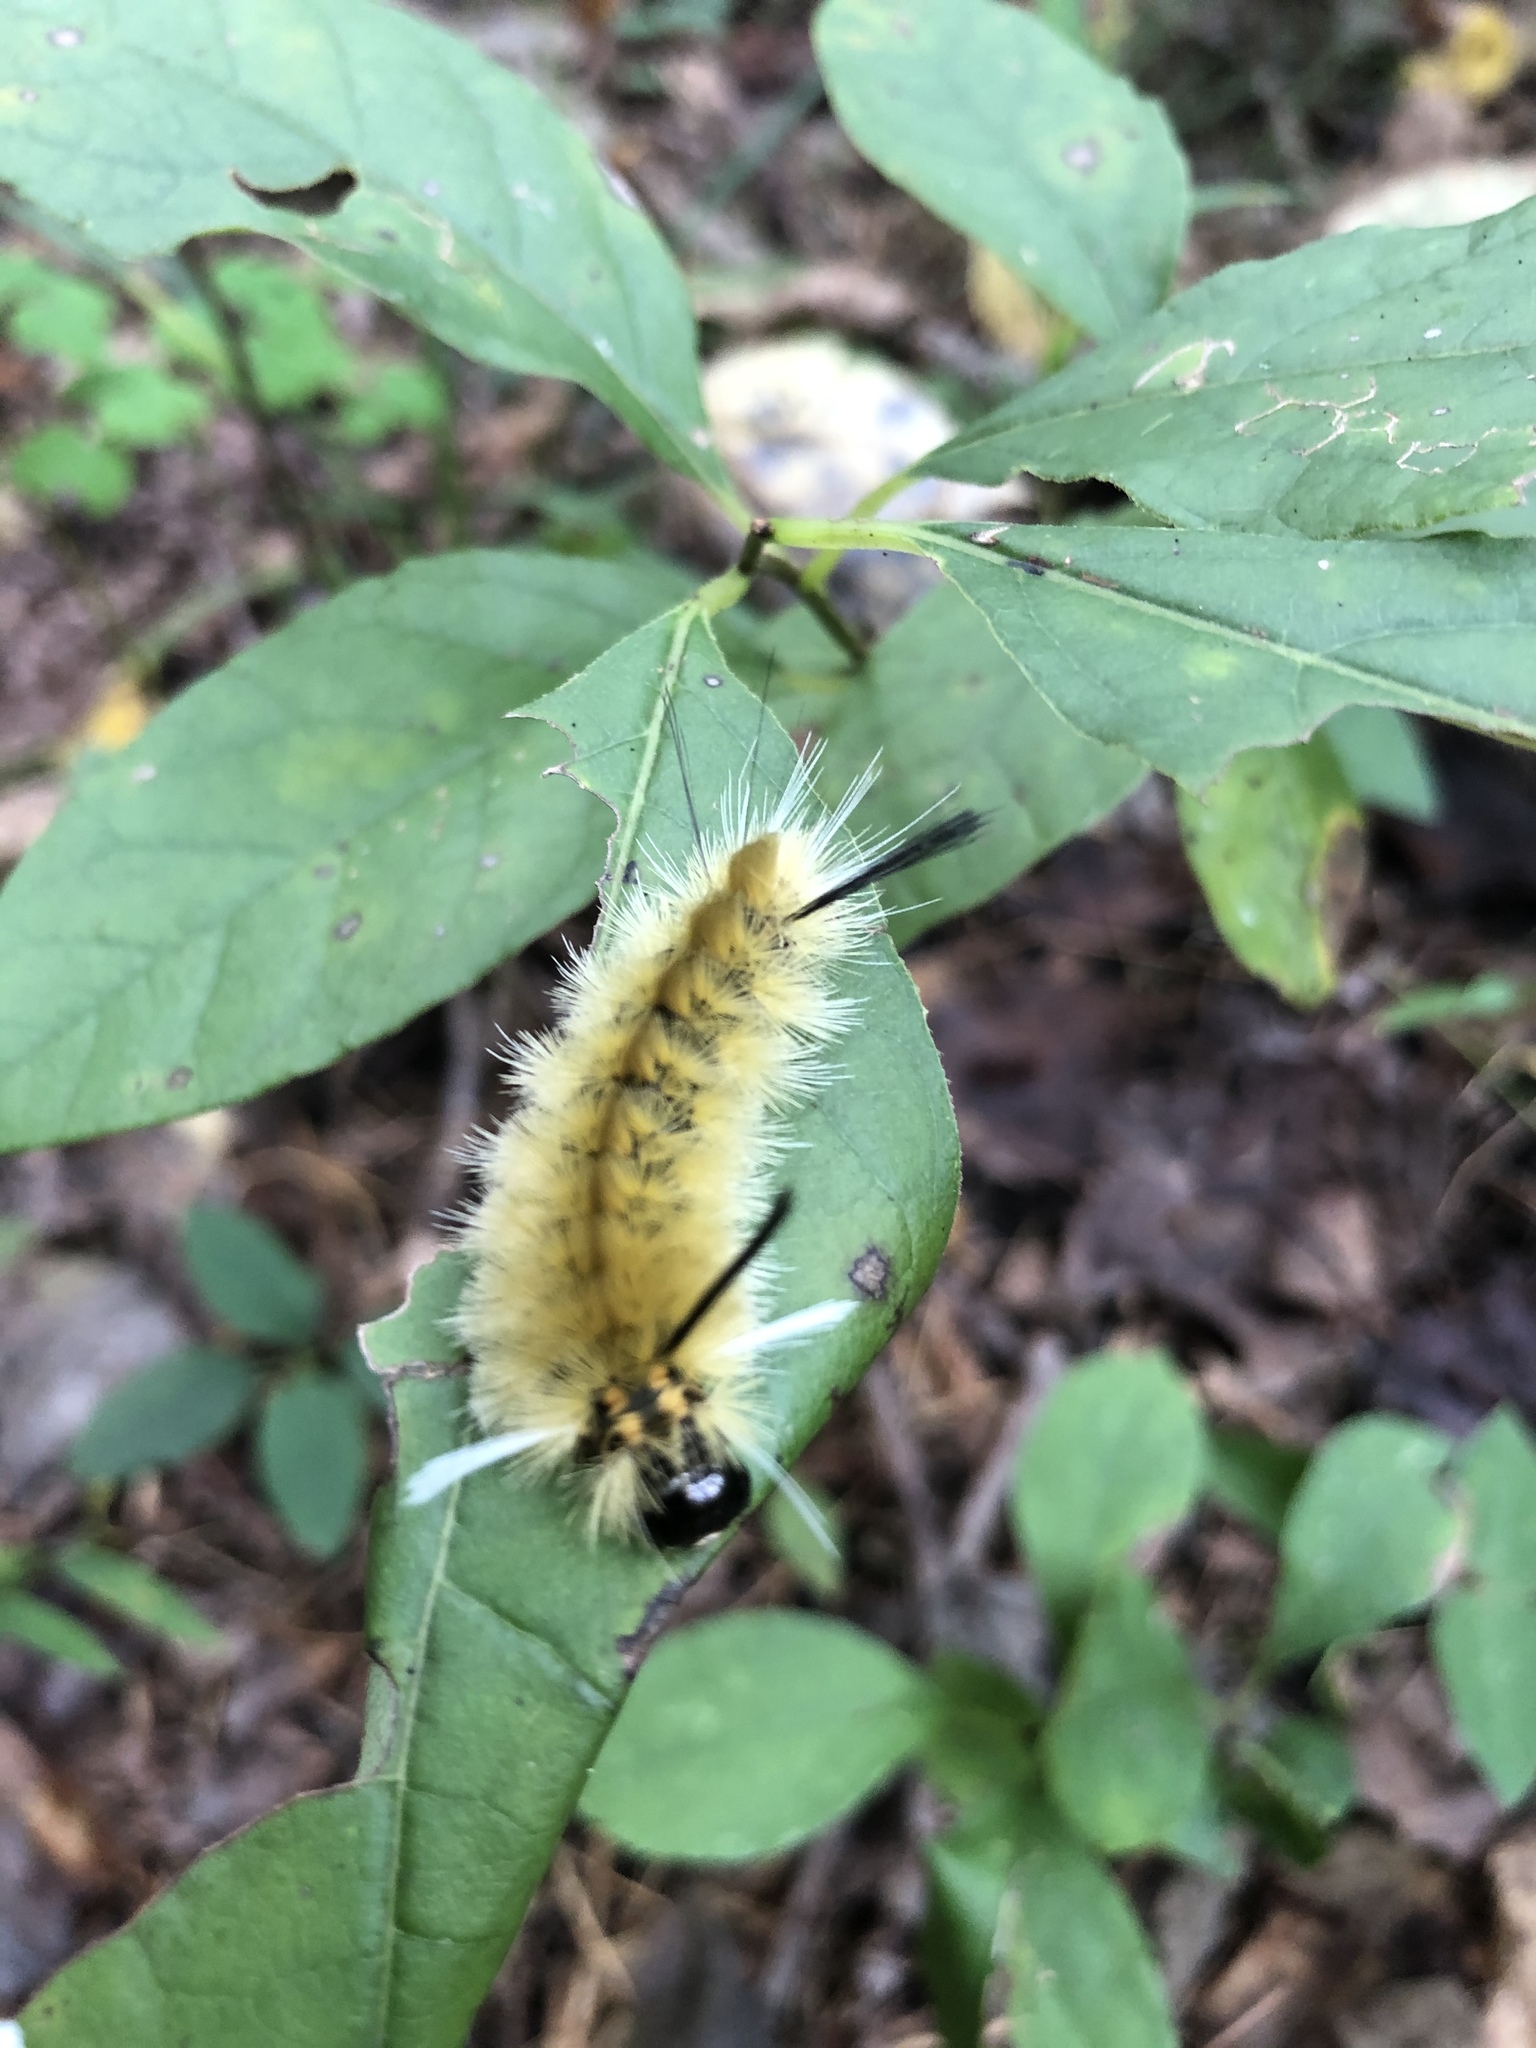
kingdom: Animalia
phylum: Arthropoda
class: Insecta
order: Lepidoptera
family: Erebidae
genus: Halysidota
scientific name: Halysidota tessellaris
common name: Banded tussock moth
